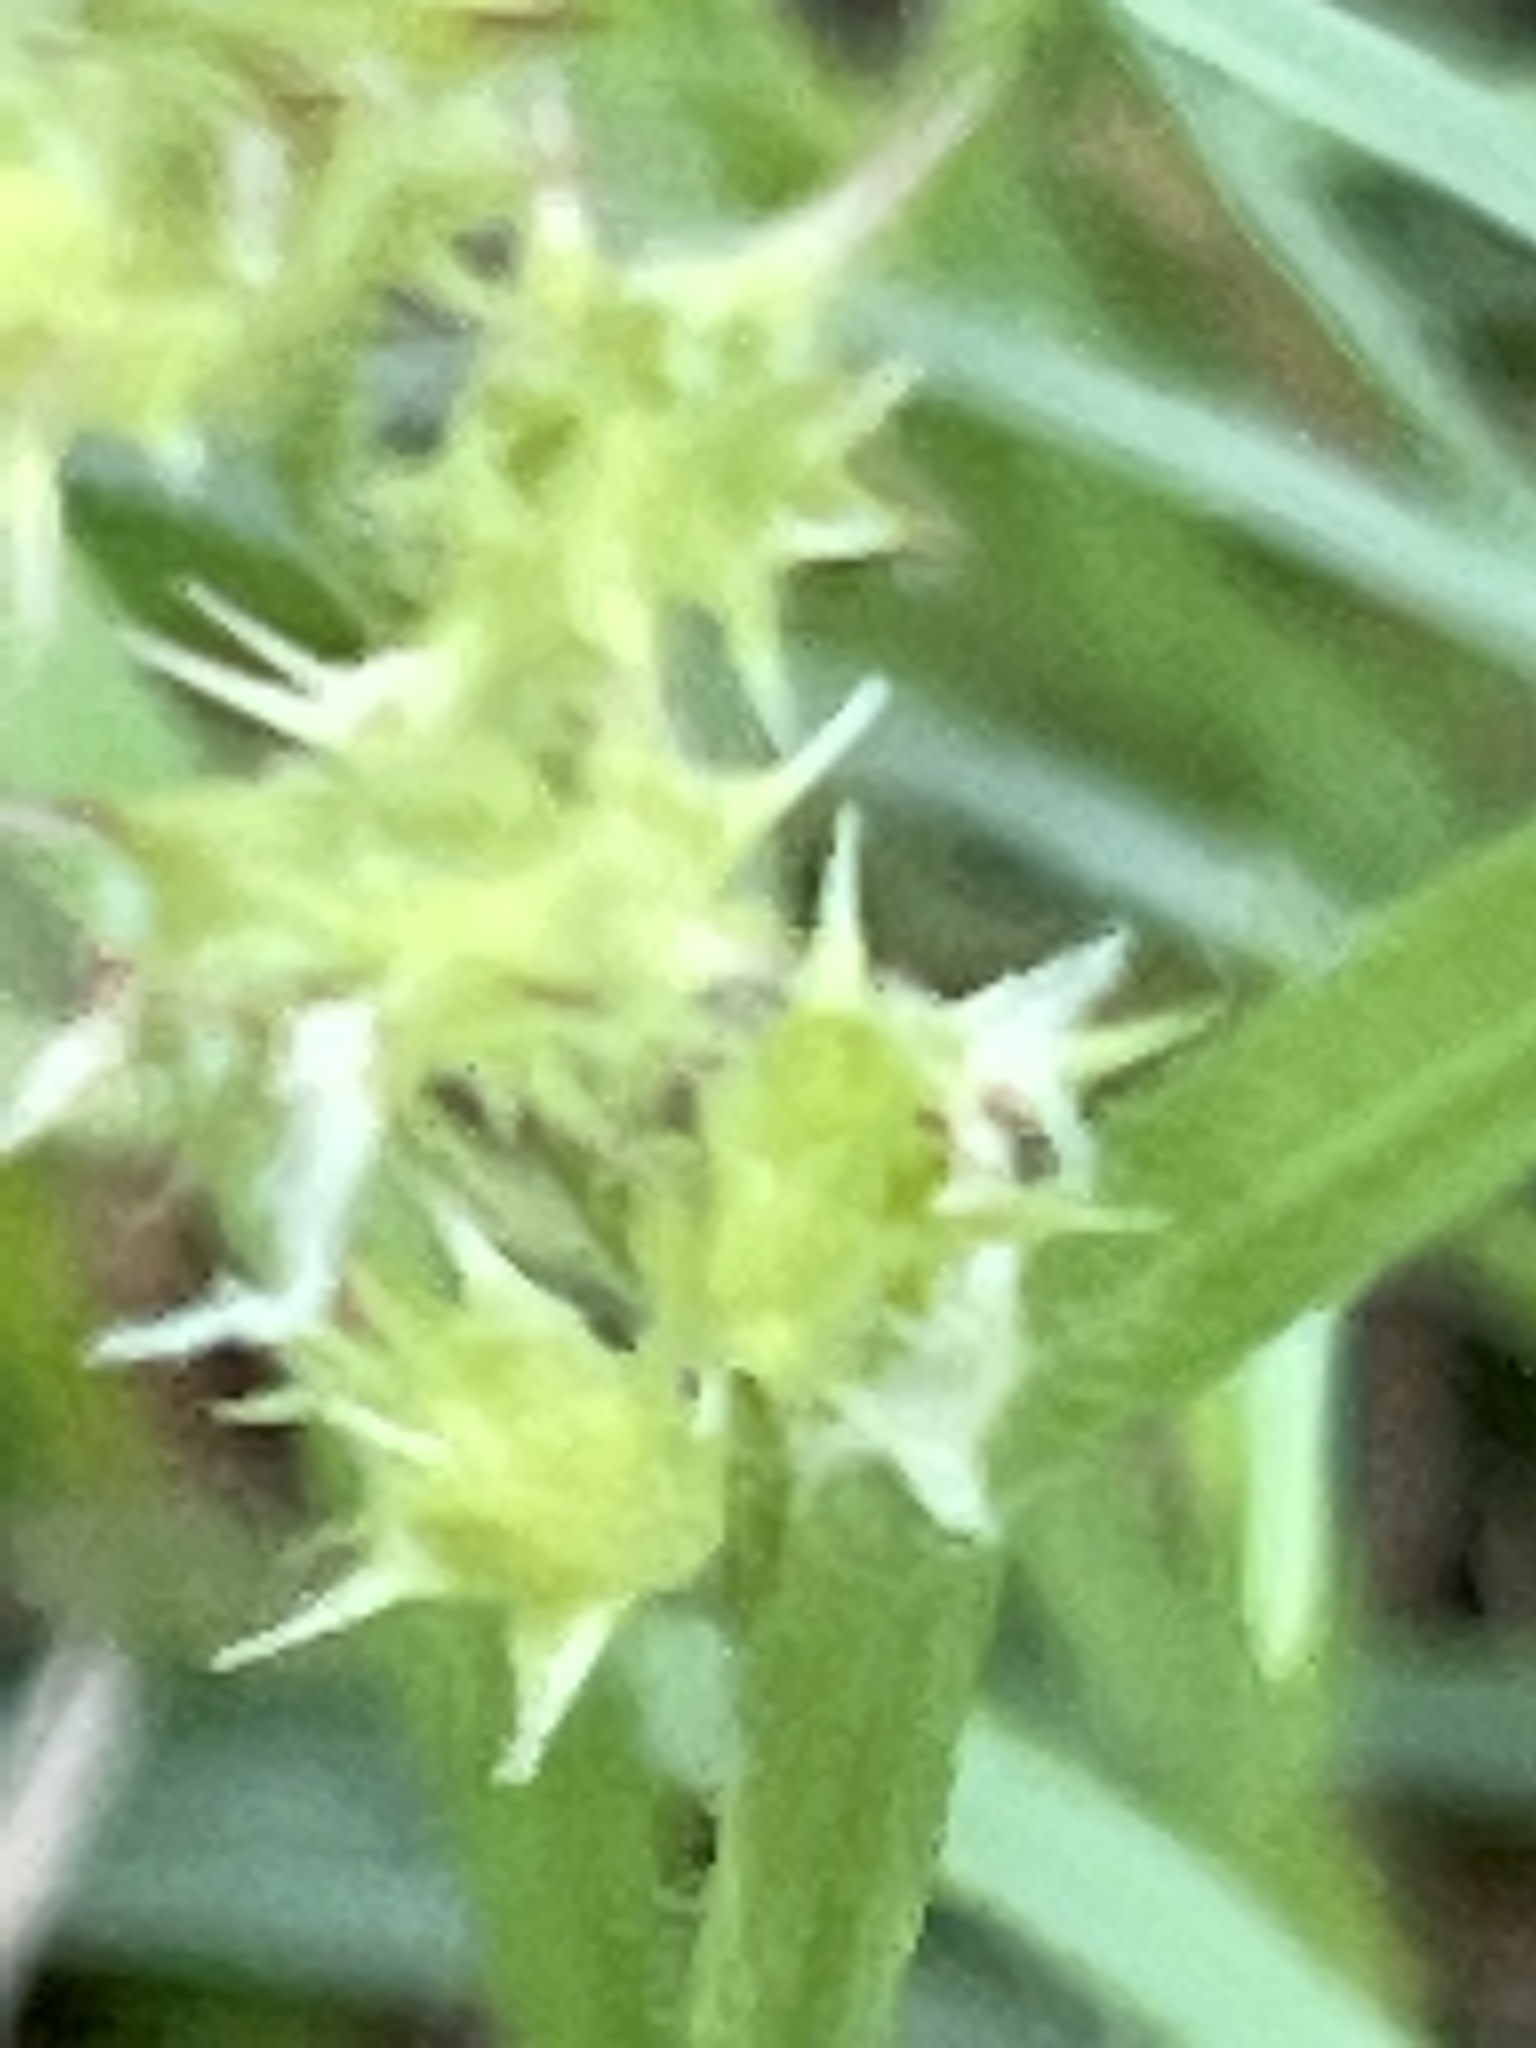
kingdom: Plantae
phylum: Tracheophyta
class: Liliopsida
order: Poales
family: Poaceae
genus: Cenchrus
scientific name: Cenchrus spinifex
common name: Coast sandbur
